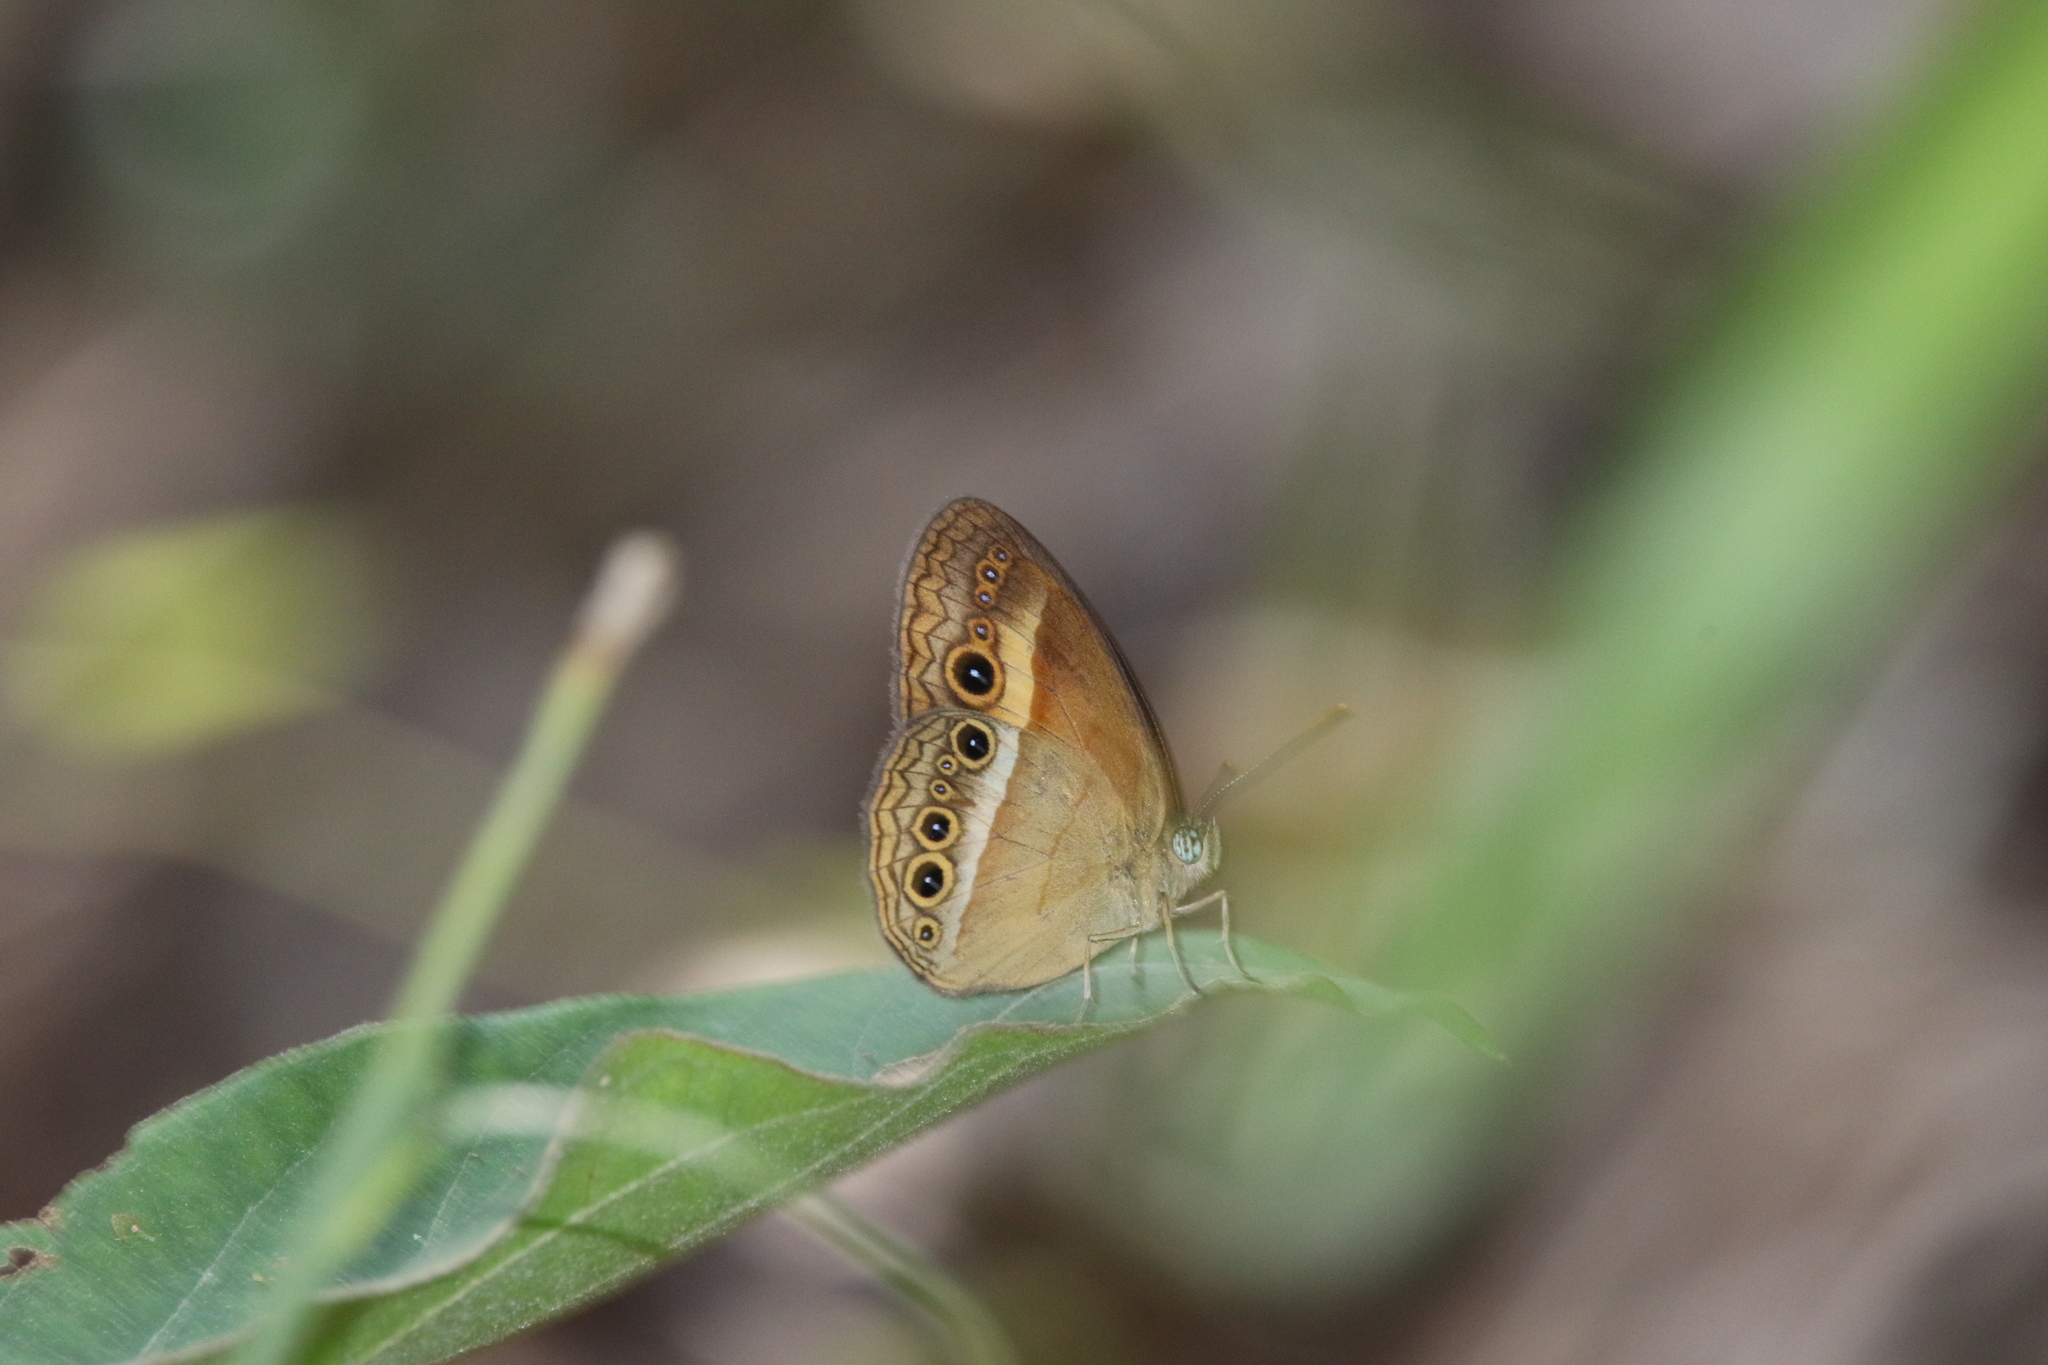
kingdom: Animalia
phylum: Arthropoda
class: Insecta
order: Lepidoptera
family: Nymphalidae
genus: Mycalesis
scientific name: Mycalesis terminus
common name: Orange bushbrown
